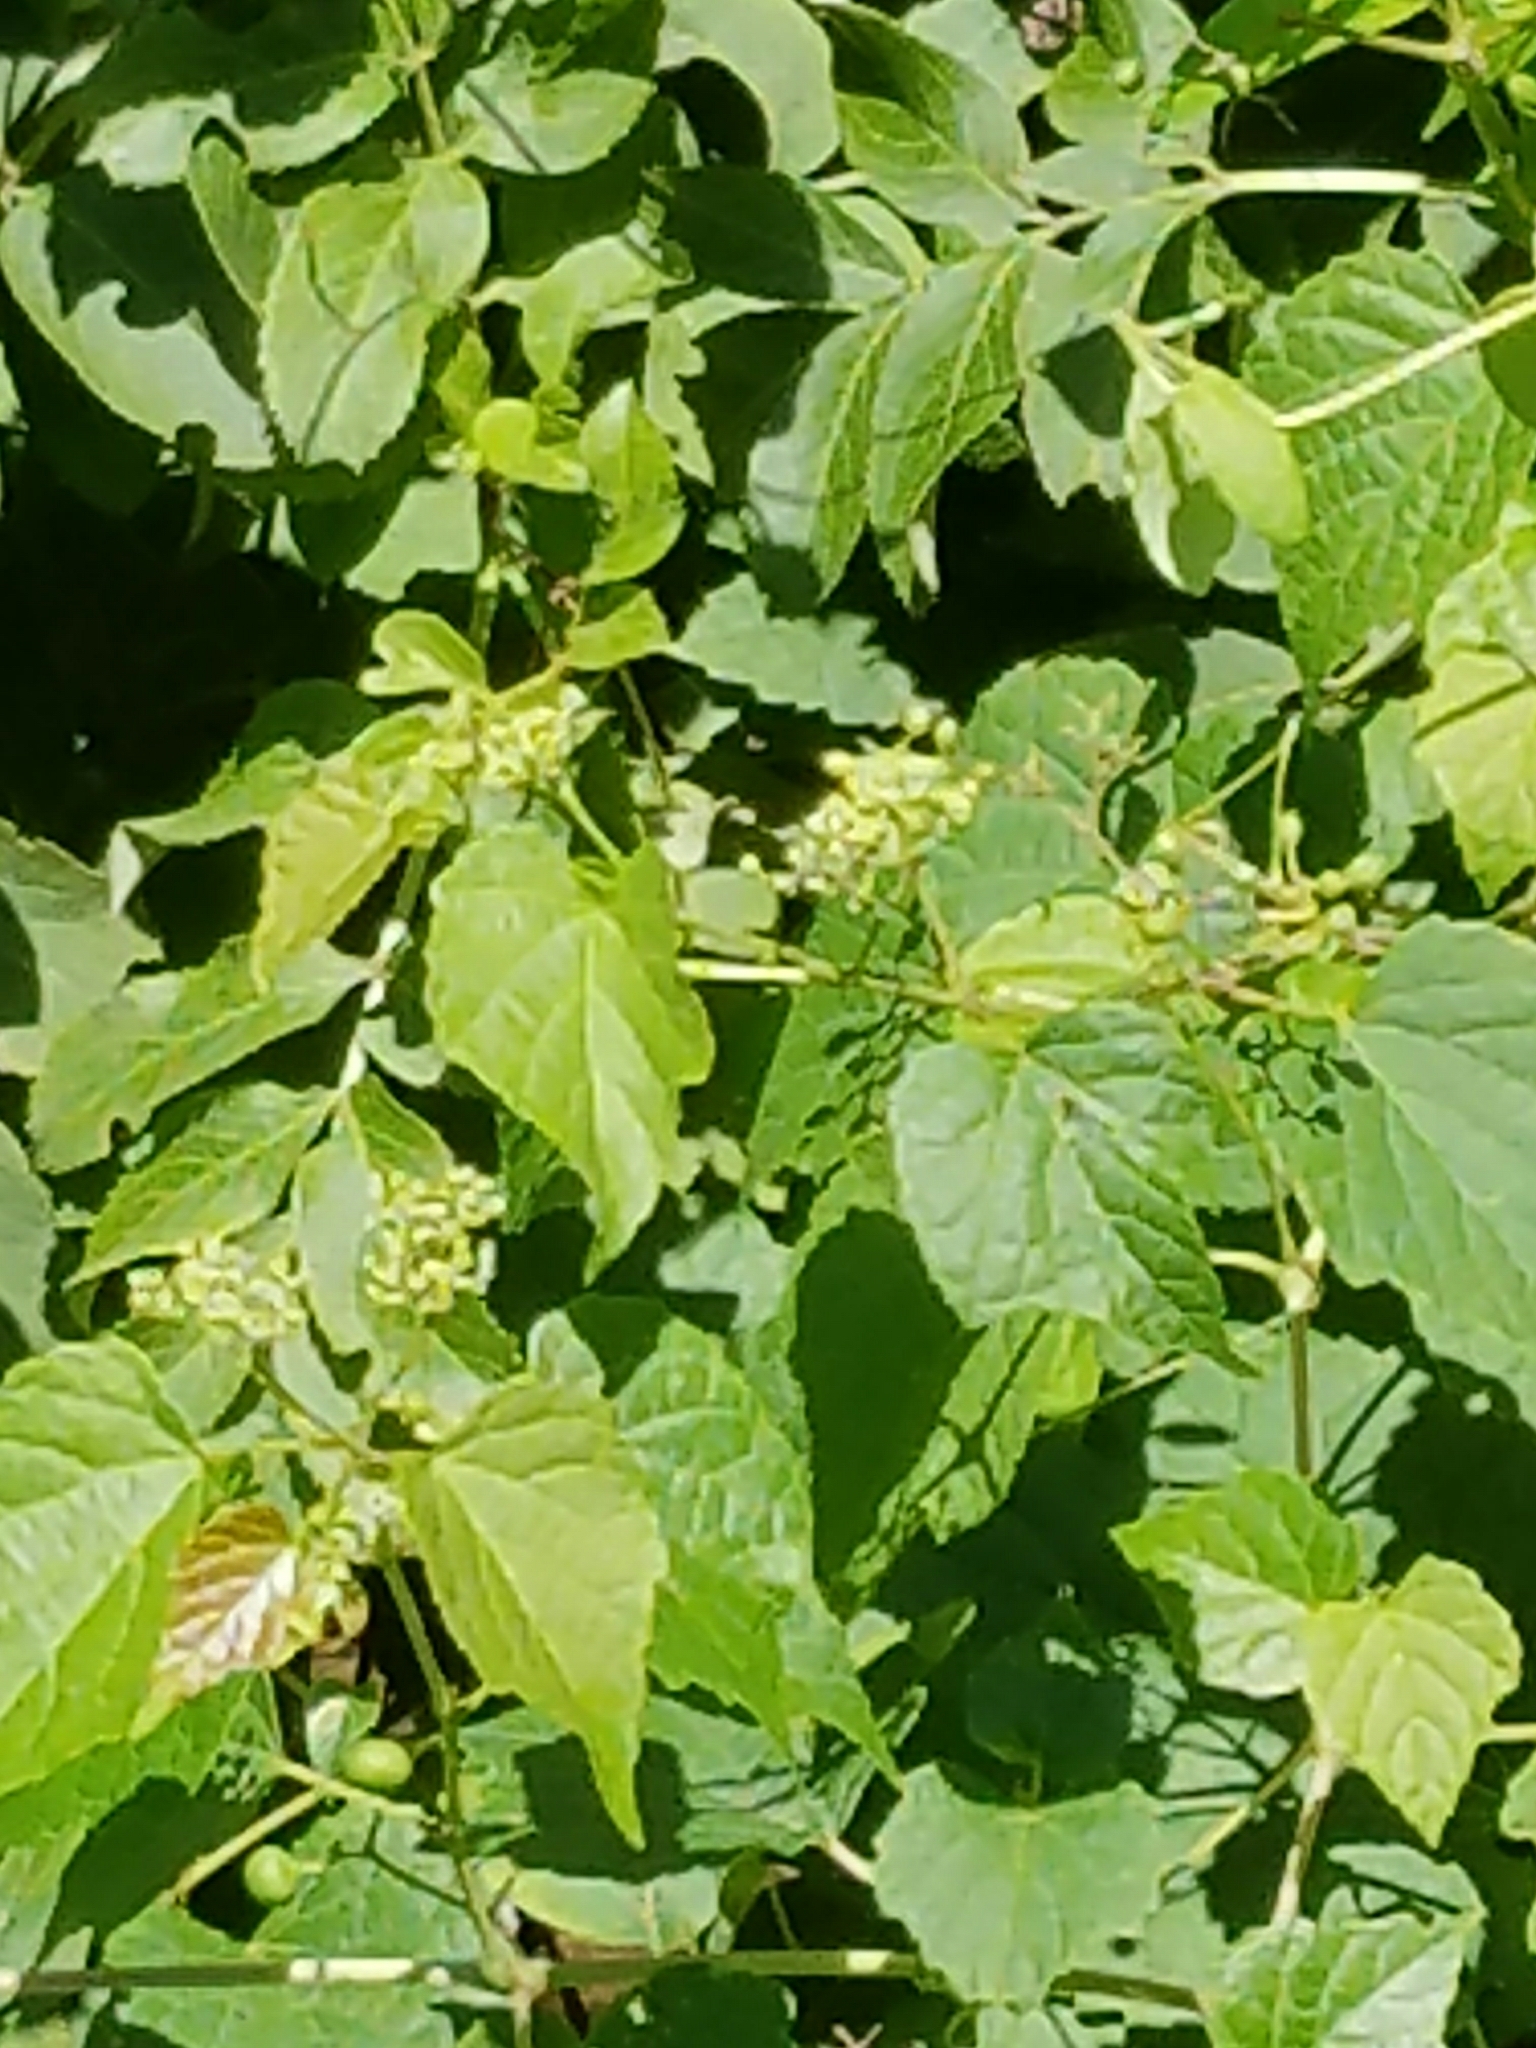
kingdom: Plantae
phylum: Tracheophyta
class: Magnoliopsida
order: Vitales
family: Vitaceae
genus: Ampelopsis
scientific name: Ampelopsis glandulosa
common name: Amur peppervine
